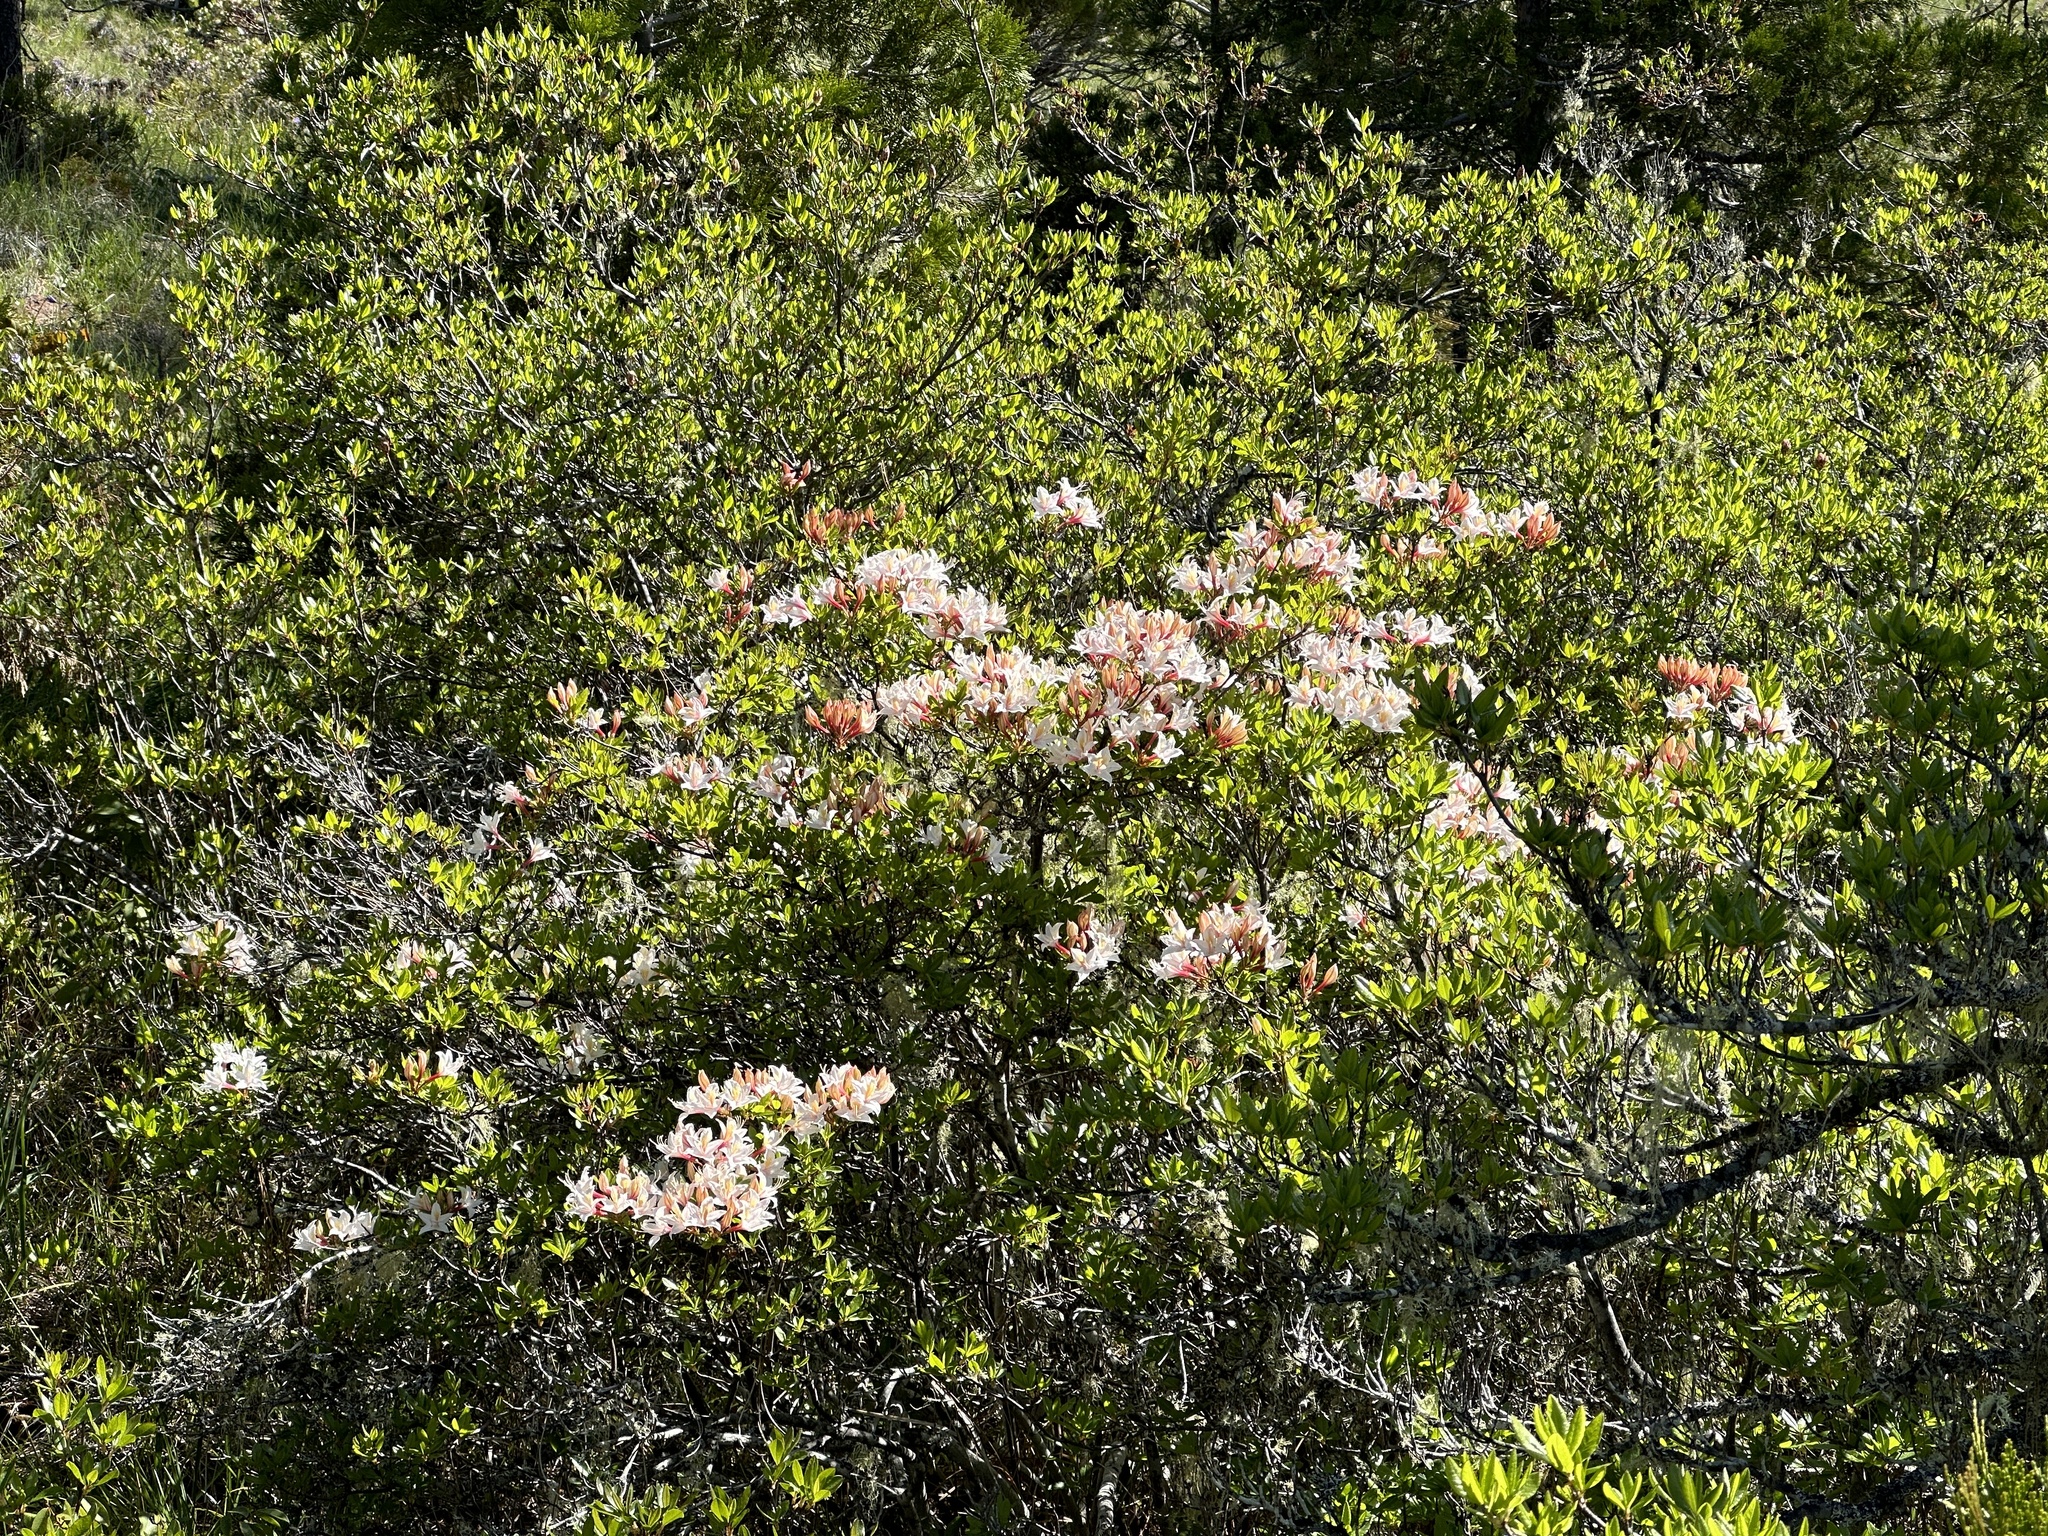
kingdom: Plantae
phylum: Tracheophyta
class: Magnoliopsida
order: Ericales
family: Ericaceae
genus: Rhododendron
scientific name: Rhododendron occidentale
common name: Western azalea
